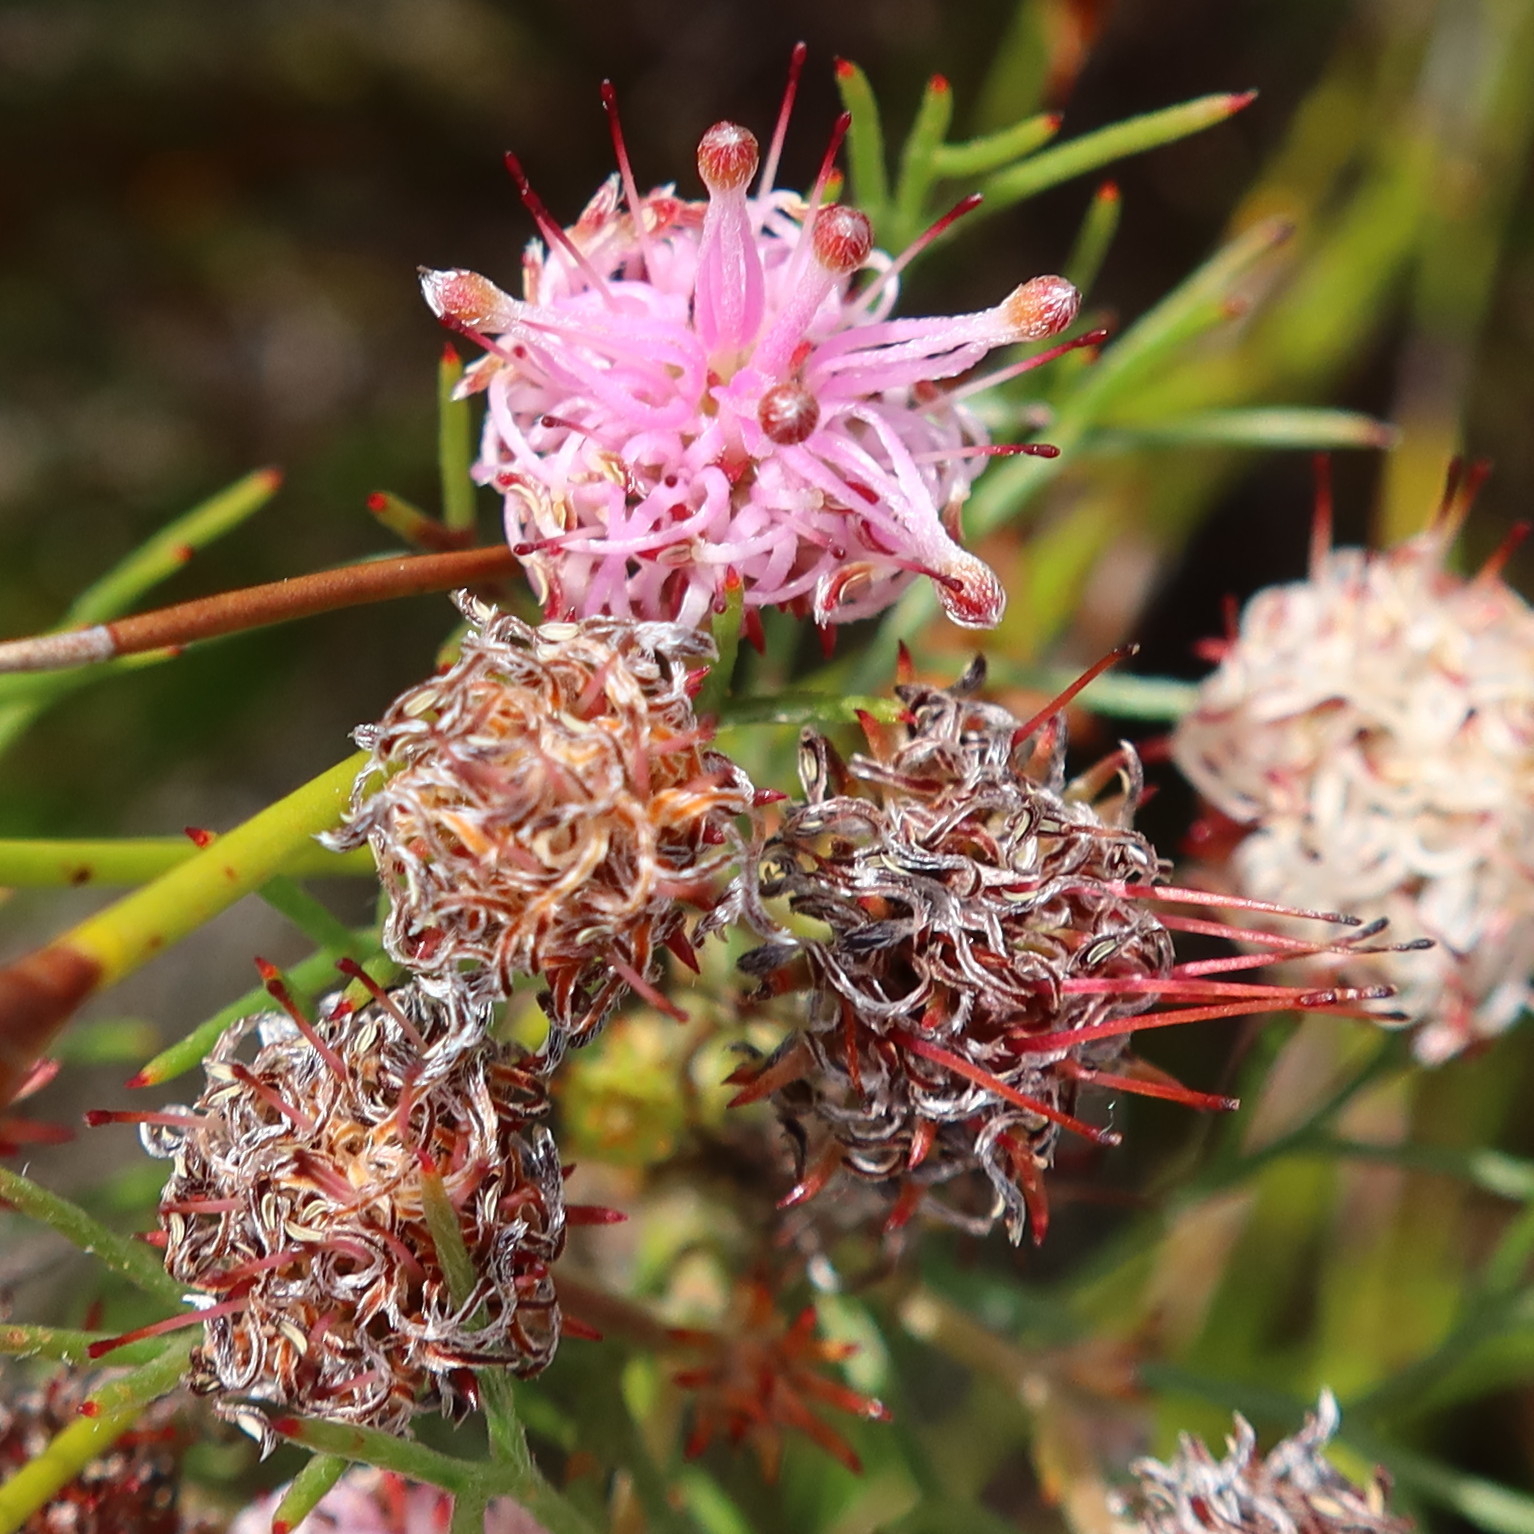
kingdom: Plantae
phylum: Tracheophyta
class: Magnoliopsida
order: Proteales
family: Proteaceae
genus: Serruria
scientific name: Serruria fasciflora
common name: Common pin spiderhead
